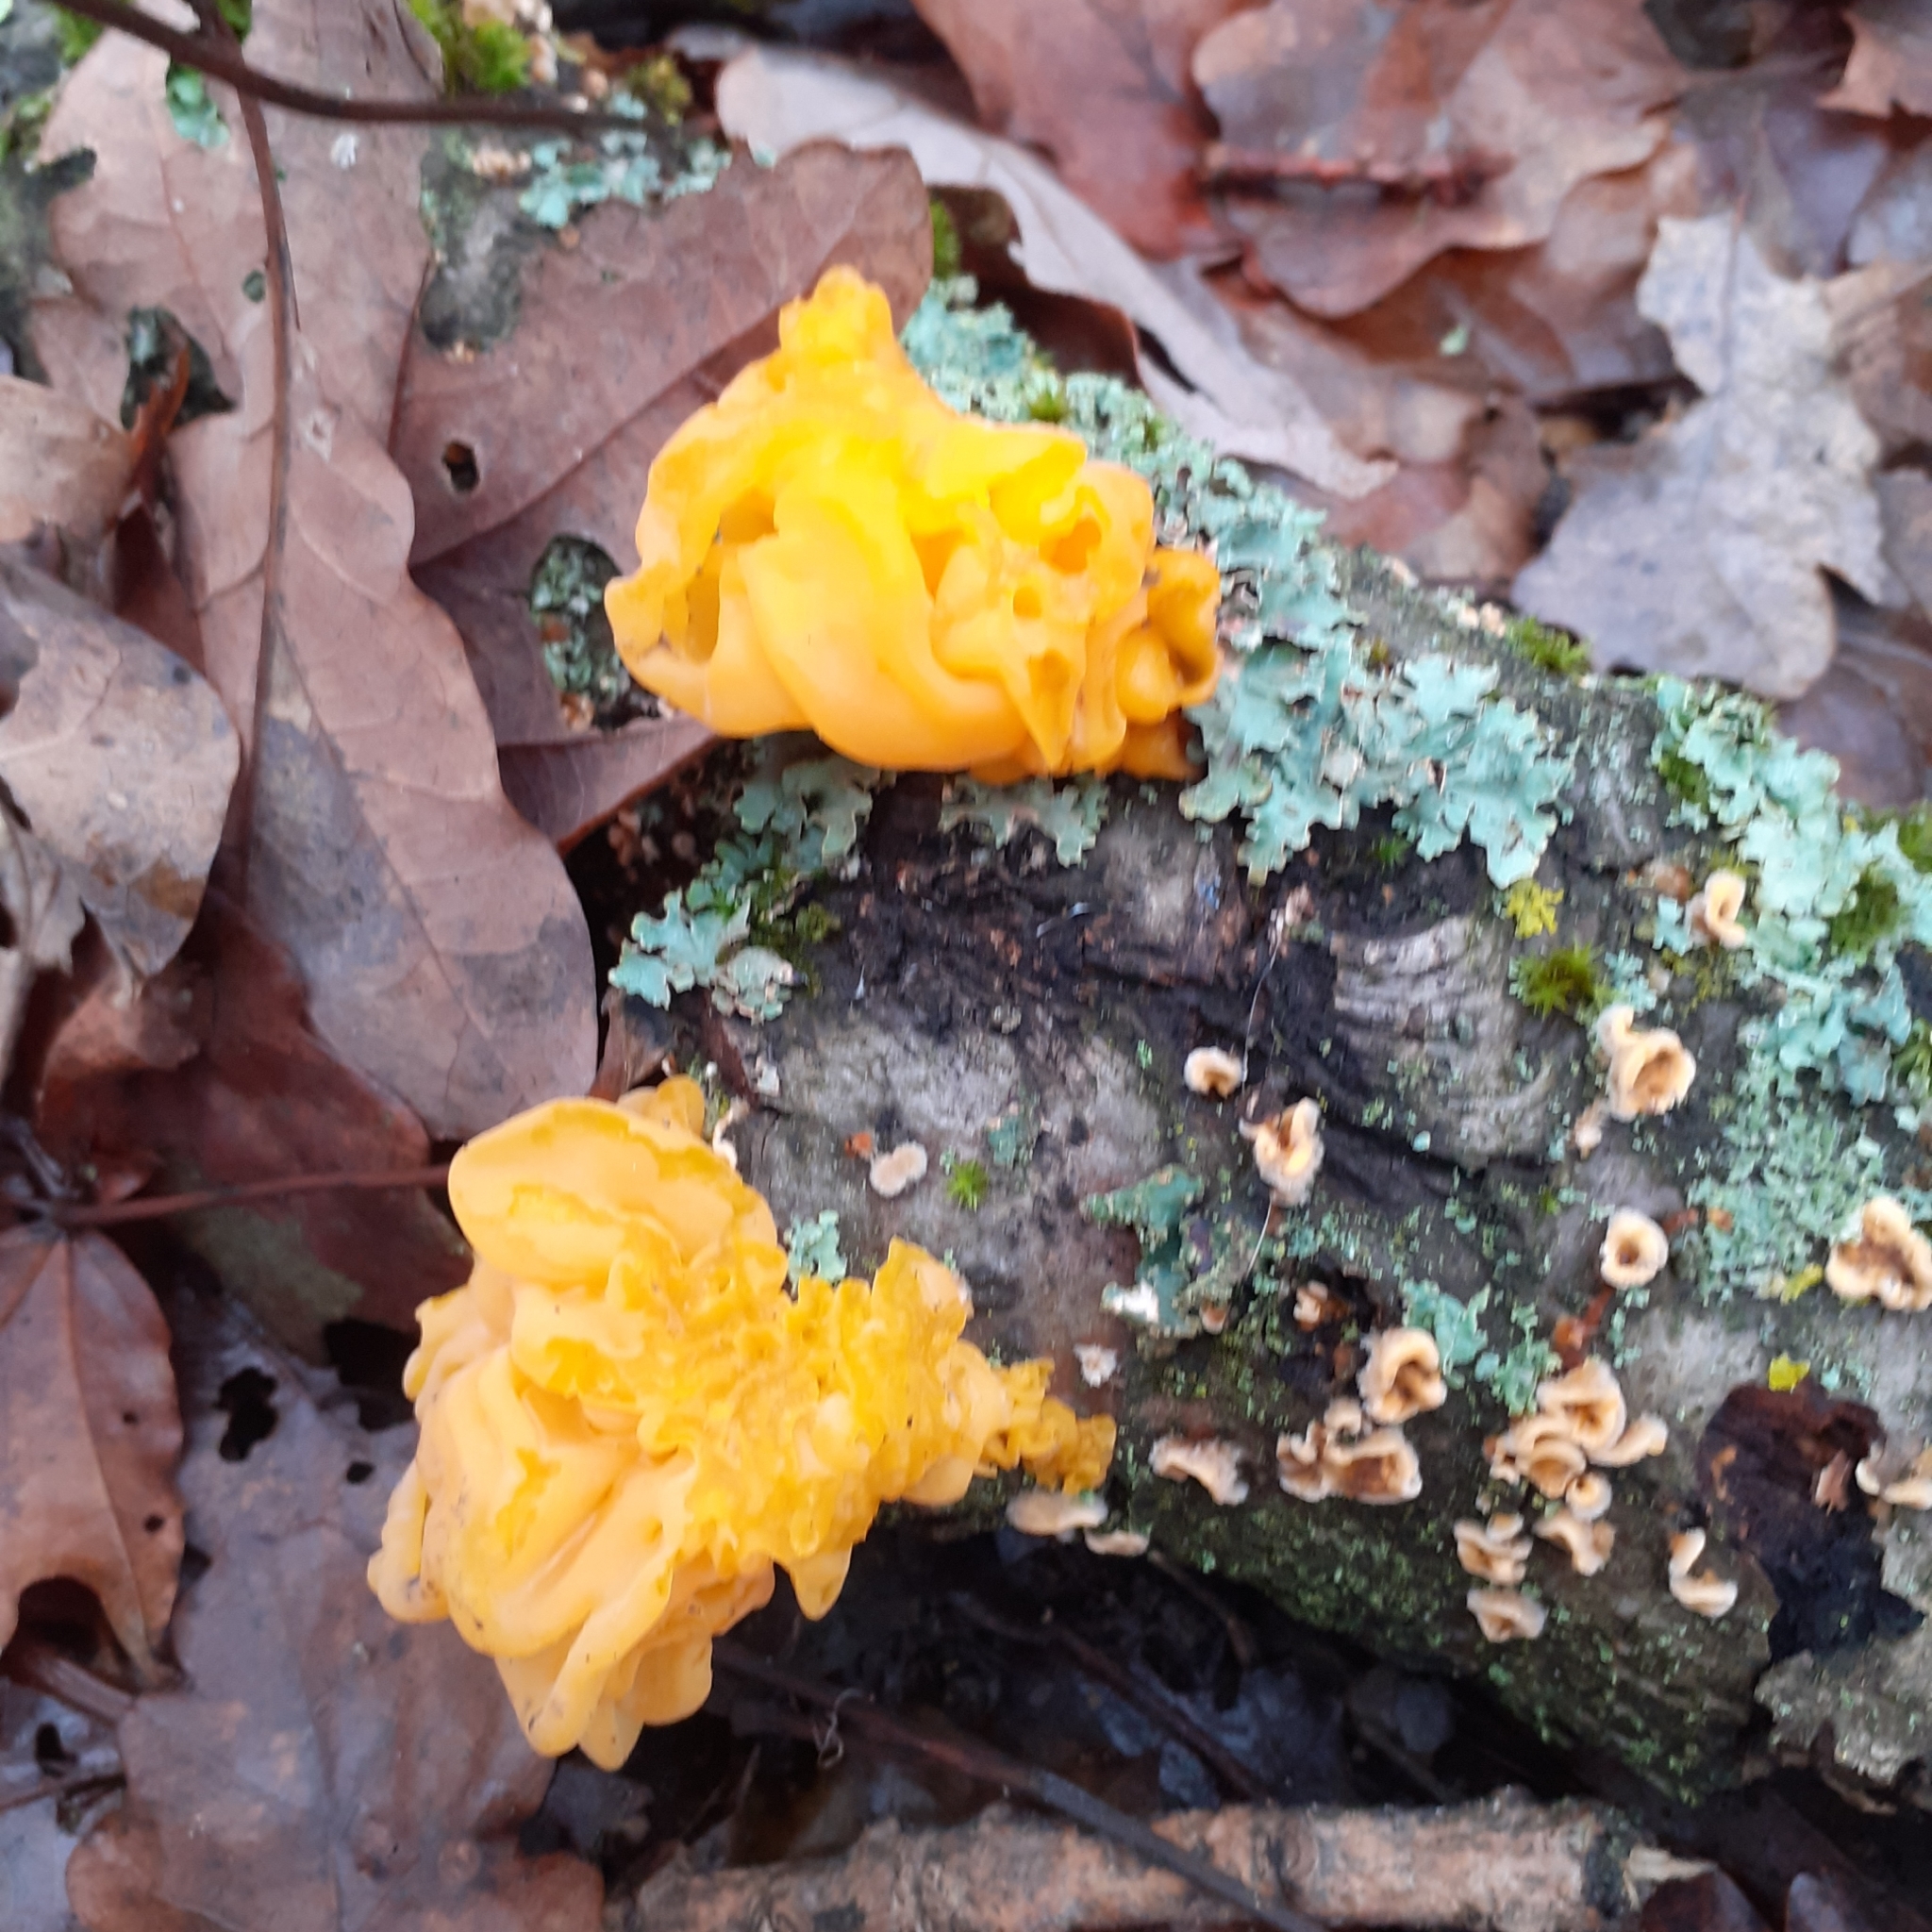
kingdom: Fungi
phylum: Basidiomycota
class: Tremellomycetes
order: Tremellales
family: Naemateliaceae
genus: Naematelia
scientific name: Naematelia aurantia
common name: Golden ear
